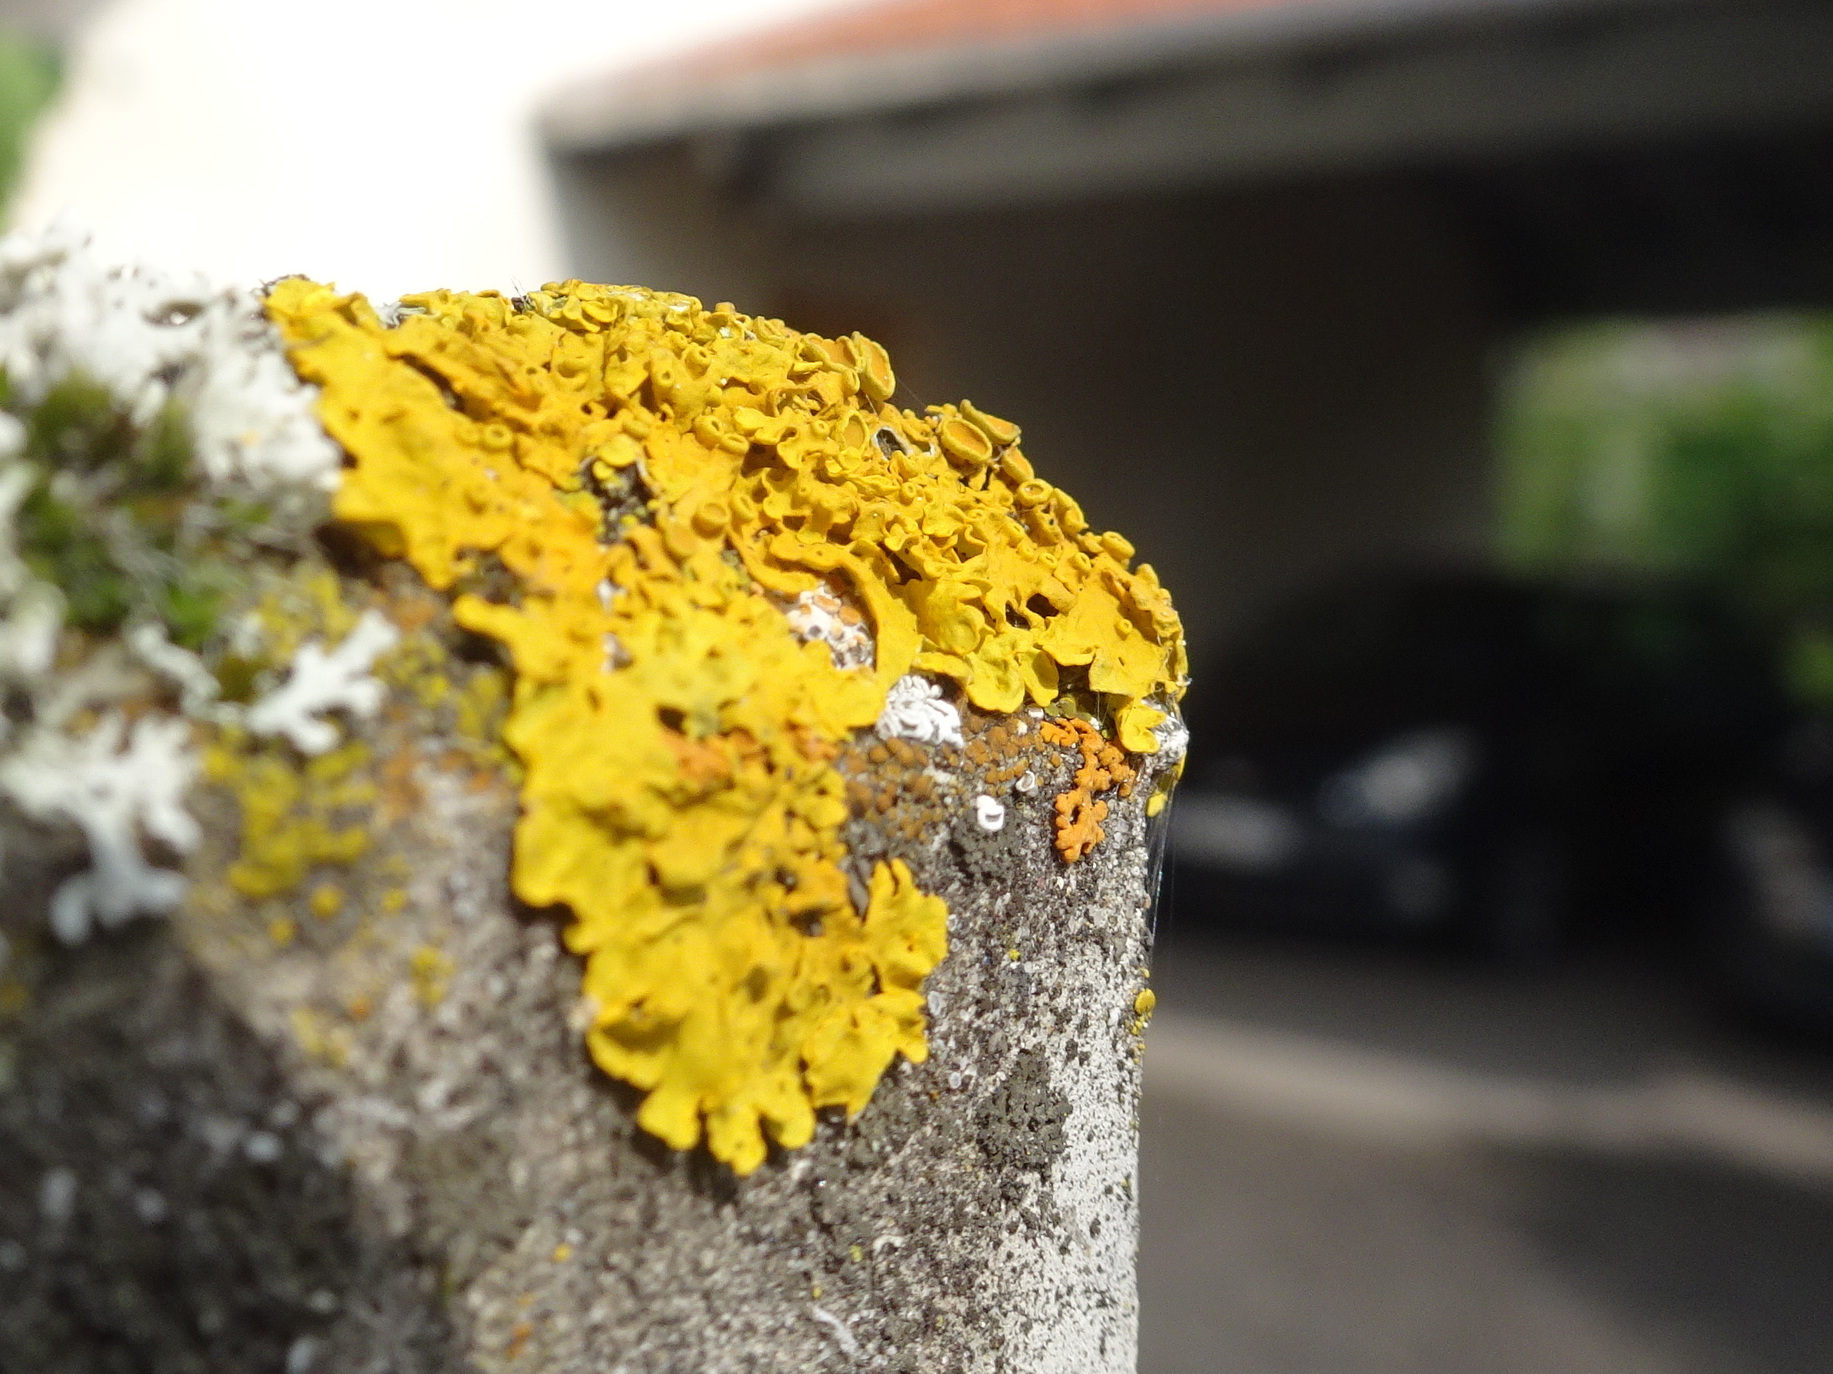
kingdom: Fungi
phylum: Ascomycota
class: Lecanoromycetes
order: Teloschistales
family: Teloschistaceae
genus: Xanthoria
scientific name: Xanthoria parietina
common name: Common orange lichen
